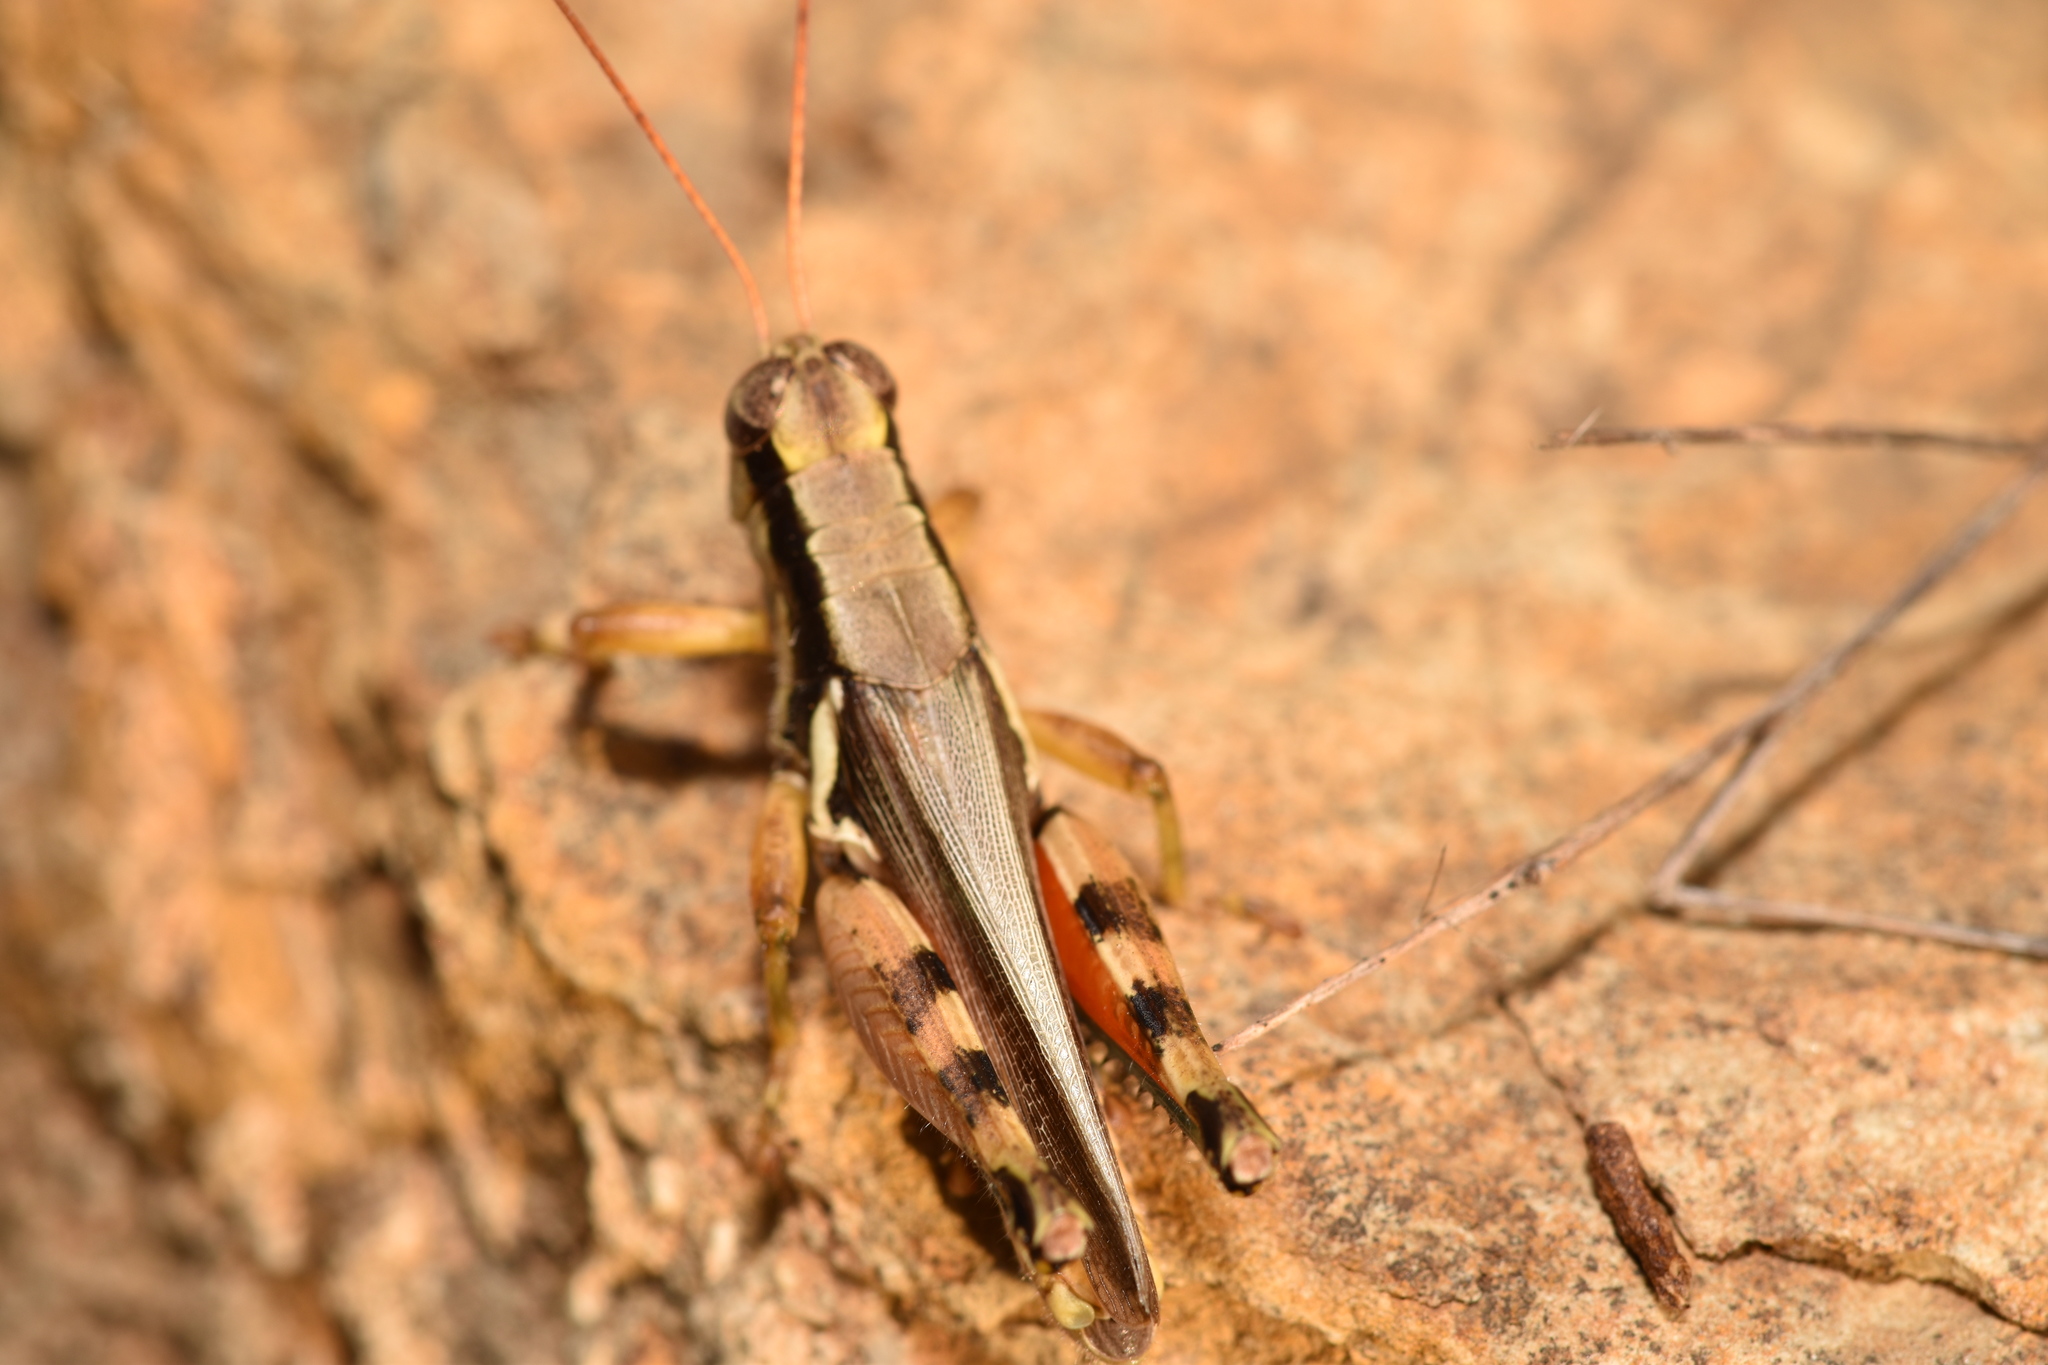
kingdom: Animalia
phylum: Arthropoda
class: Insecta
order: Orthoptera
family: Acrididae
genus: Melanoplus
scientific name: Melanoplus glaucipes
